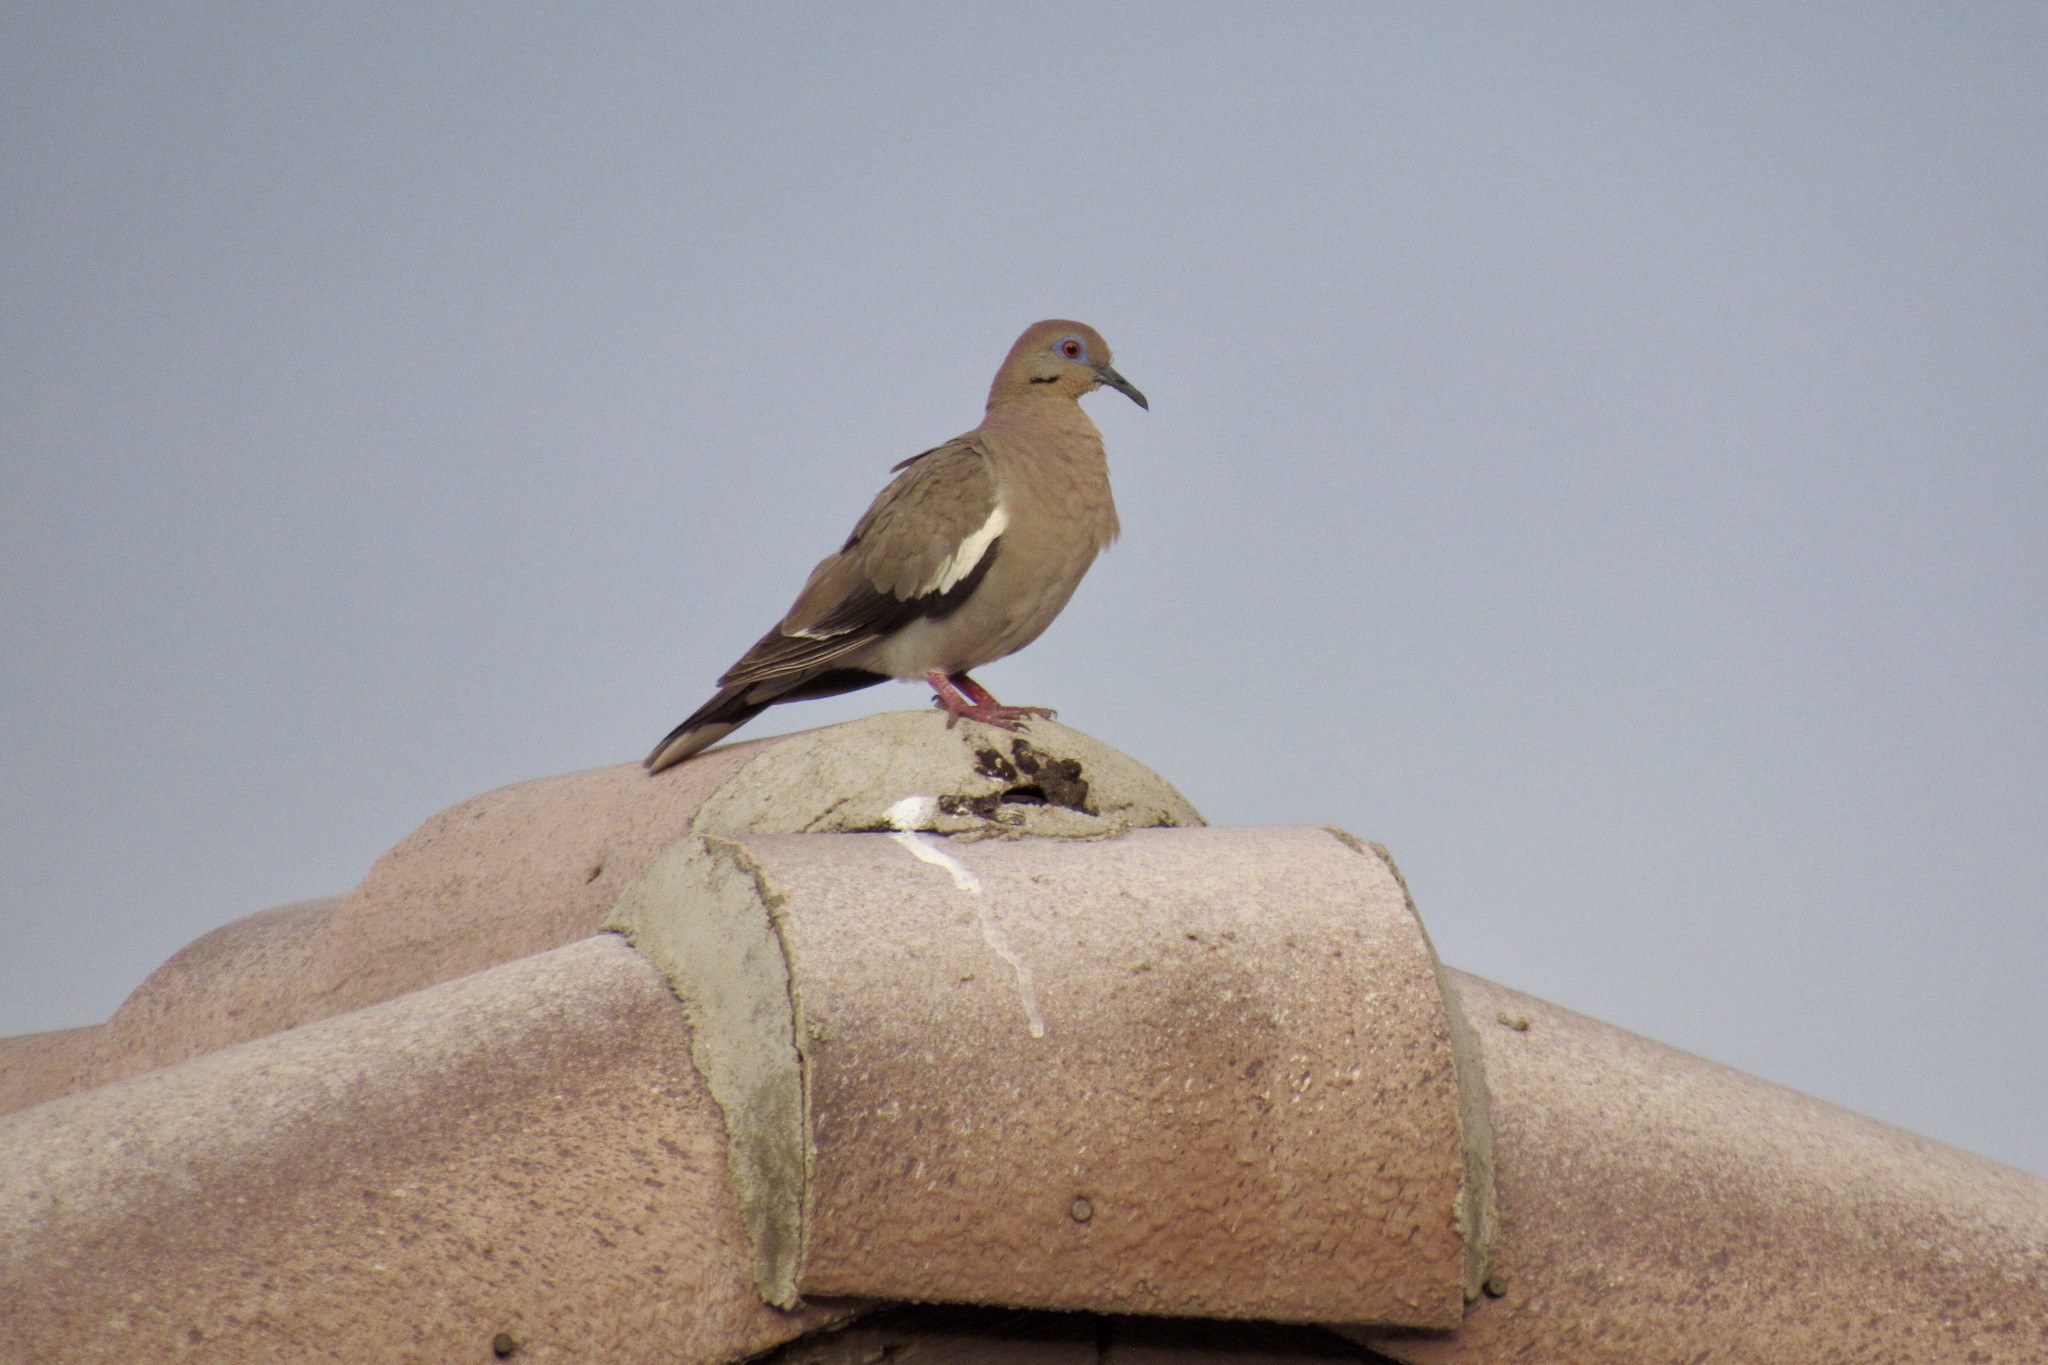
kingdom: Animalia
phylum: Chordata
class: Aves
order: Columbiformes
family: Columbidae
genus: Zenaida
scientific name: Zenaida asiatica
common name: White-winged dove
